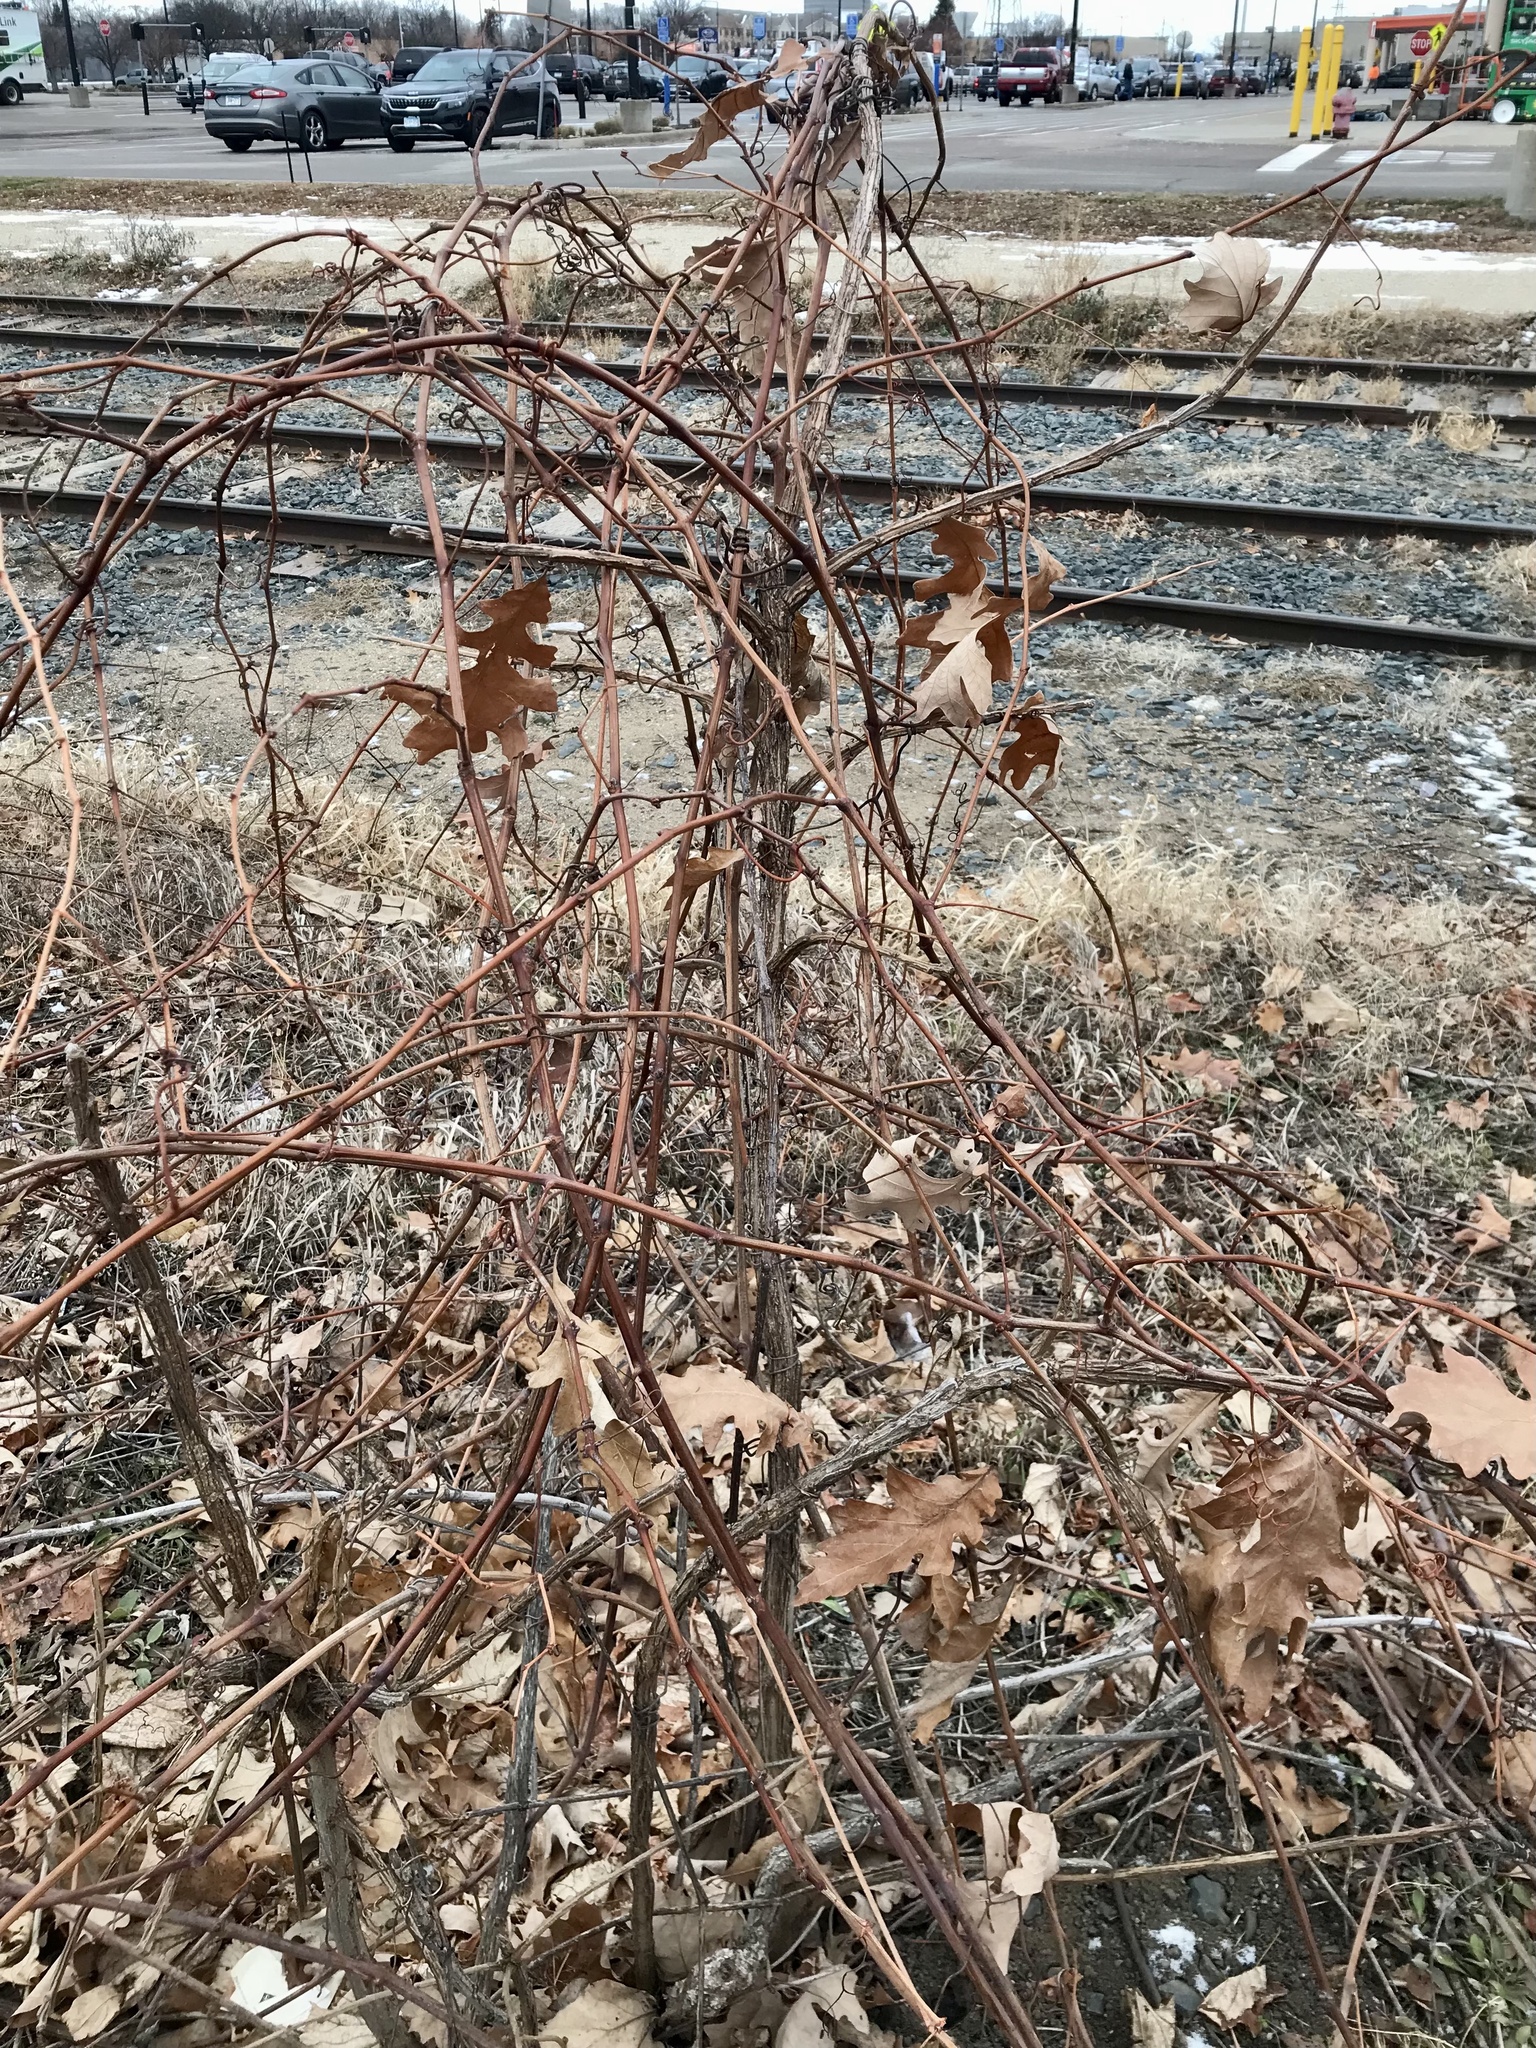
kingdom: Plantae
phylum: Tracheophyta
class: Magnoliopsida
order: Fagales
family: Fagaceae
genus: Quercus
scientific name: Quercus macrocarpa
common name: Bur oak
